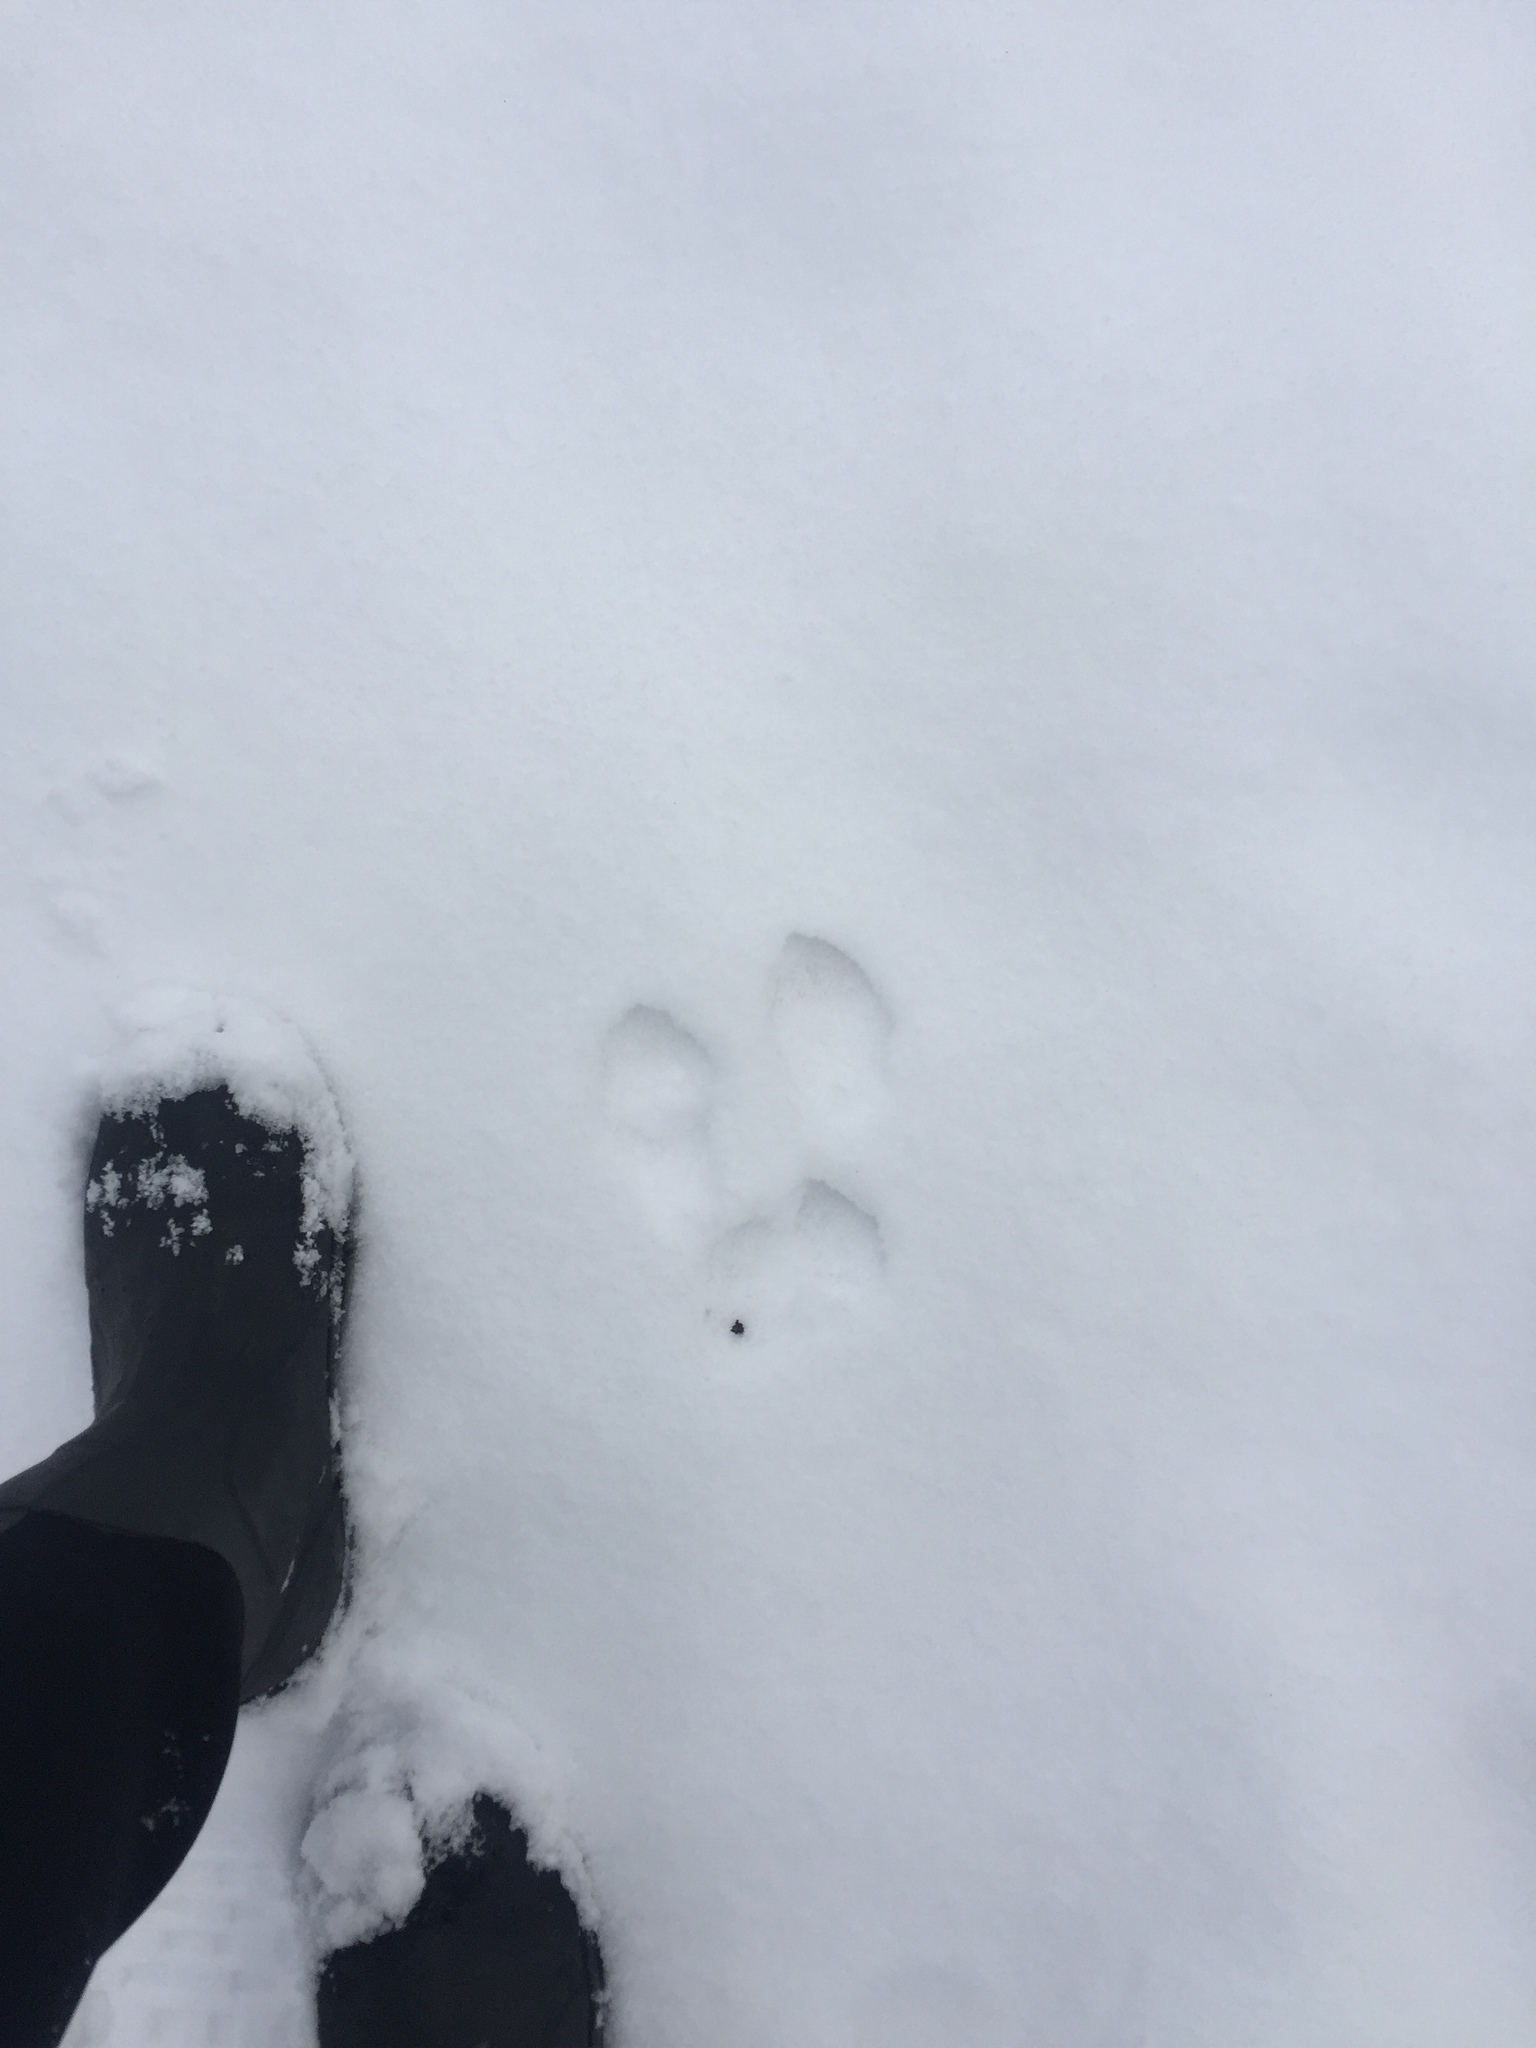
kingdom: Animalia
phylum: Chordata
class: Mammalia
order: Lagomorpha
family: Leporidae
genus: Lepus
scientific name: Lepus americanus
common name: Snowshoe hare
